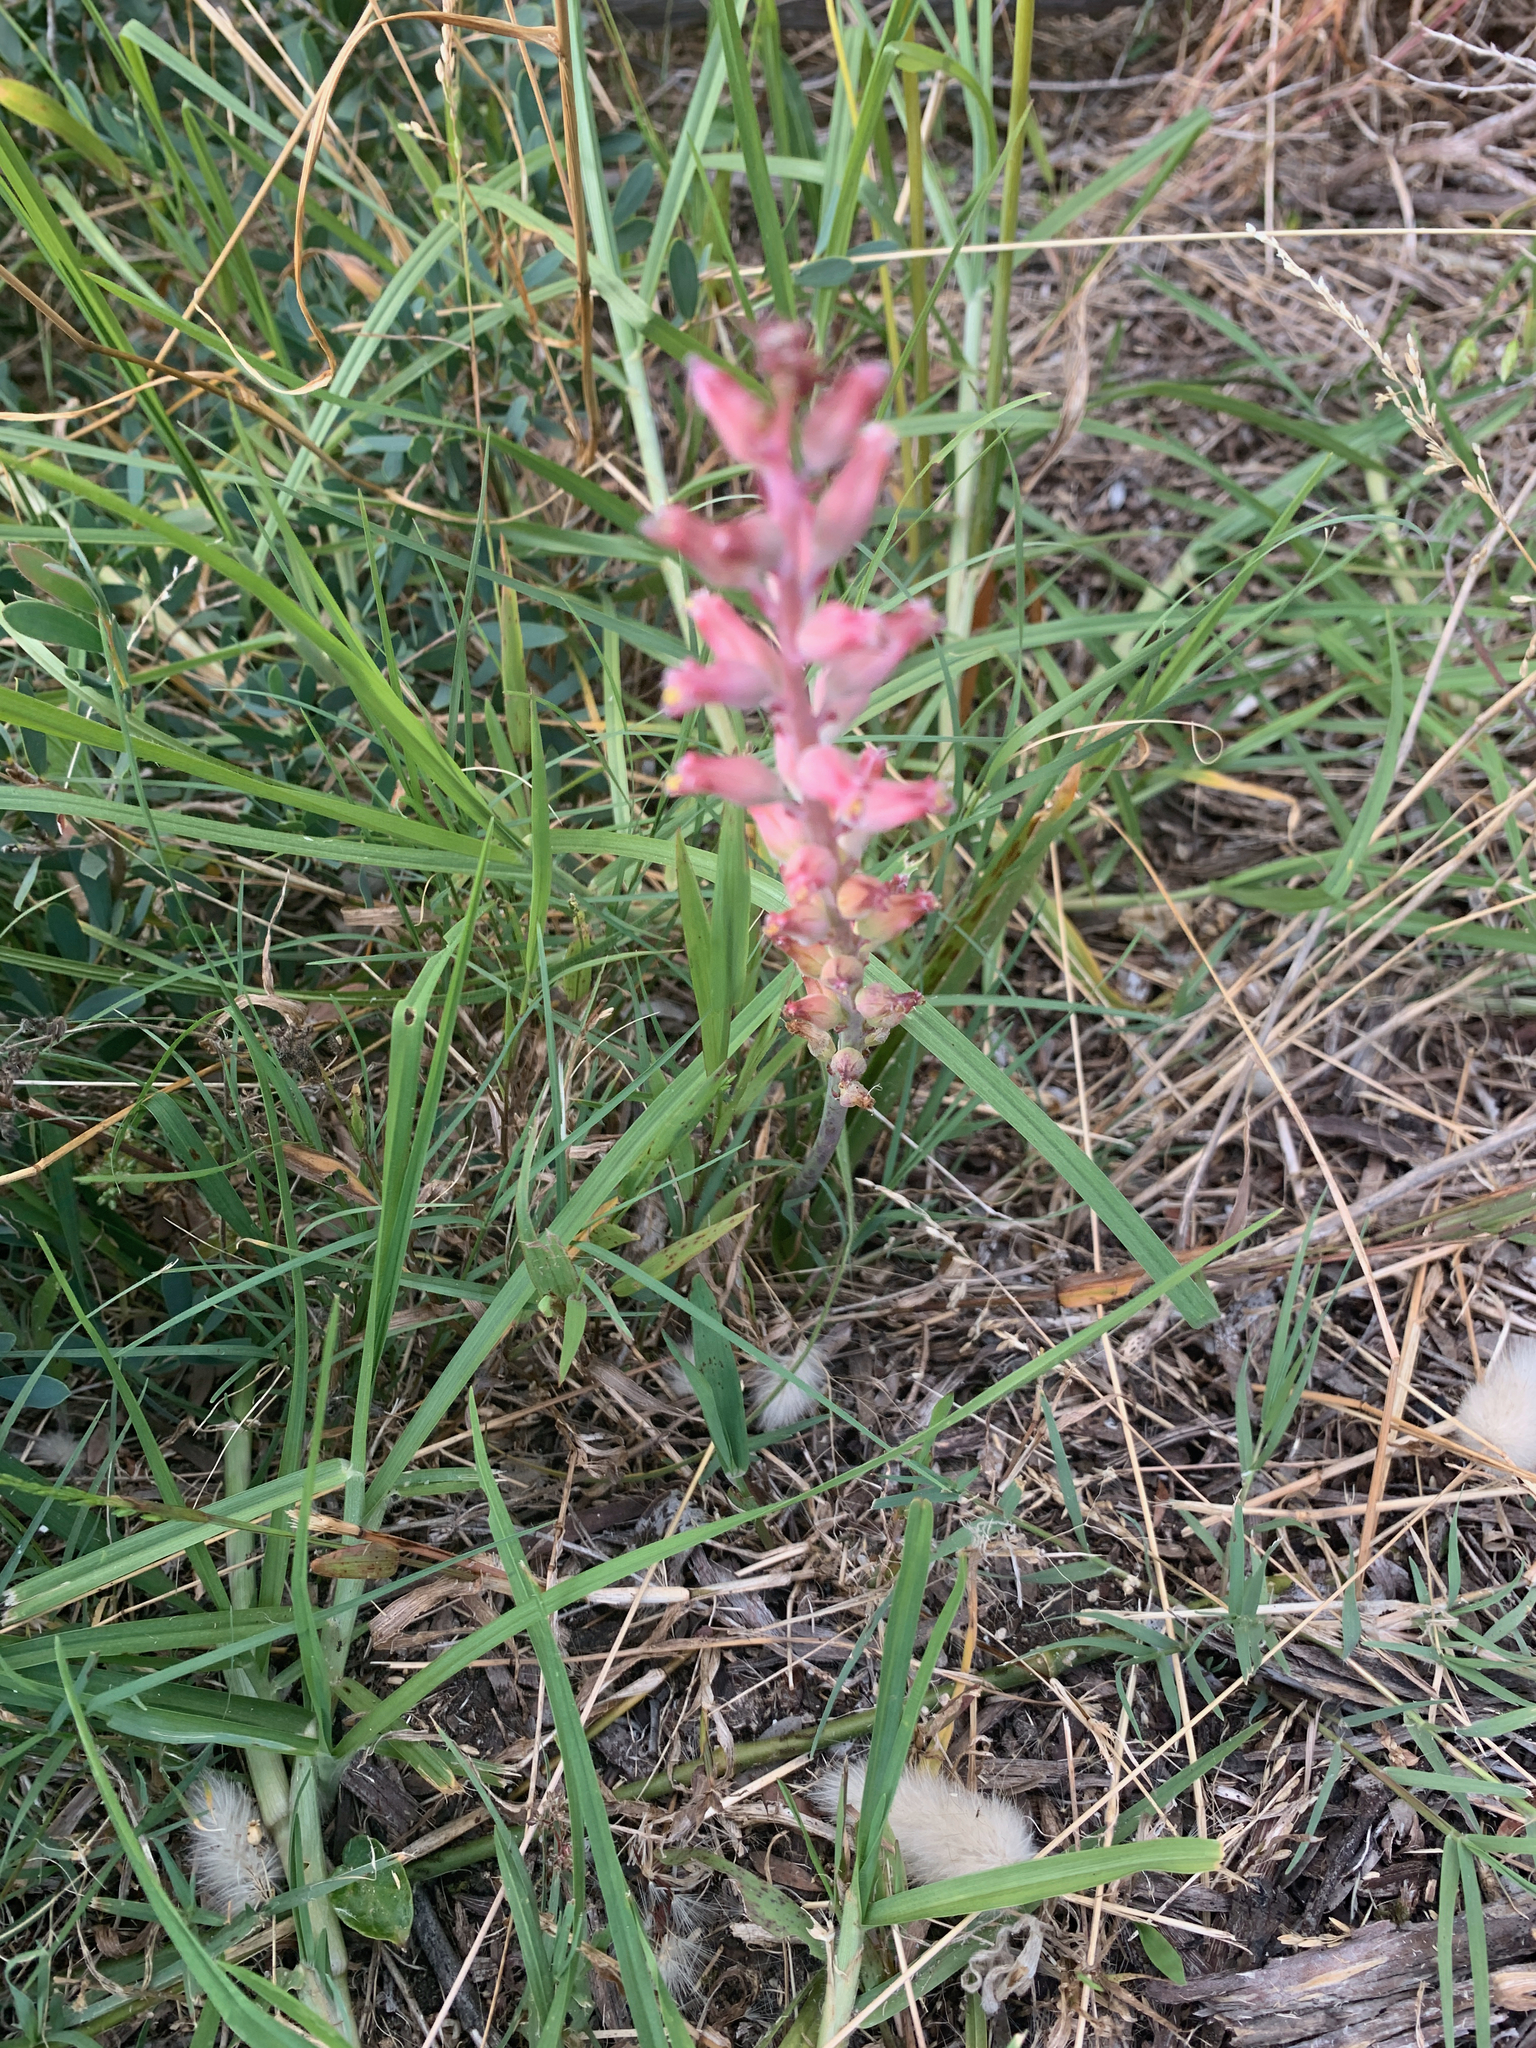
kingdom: Plantae
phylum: Tracheophyta
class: Liliopsida
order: Asparagales
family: Asparagaceae
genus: Lachenalia
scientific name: Lachenalia rosea
